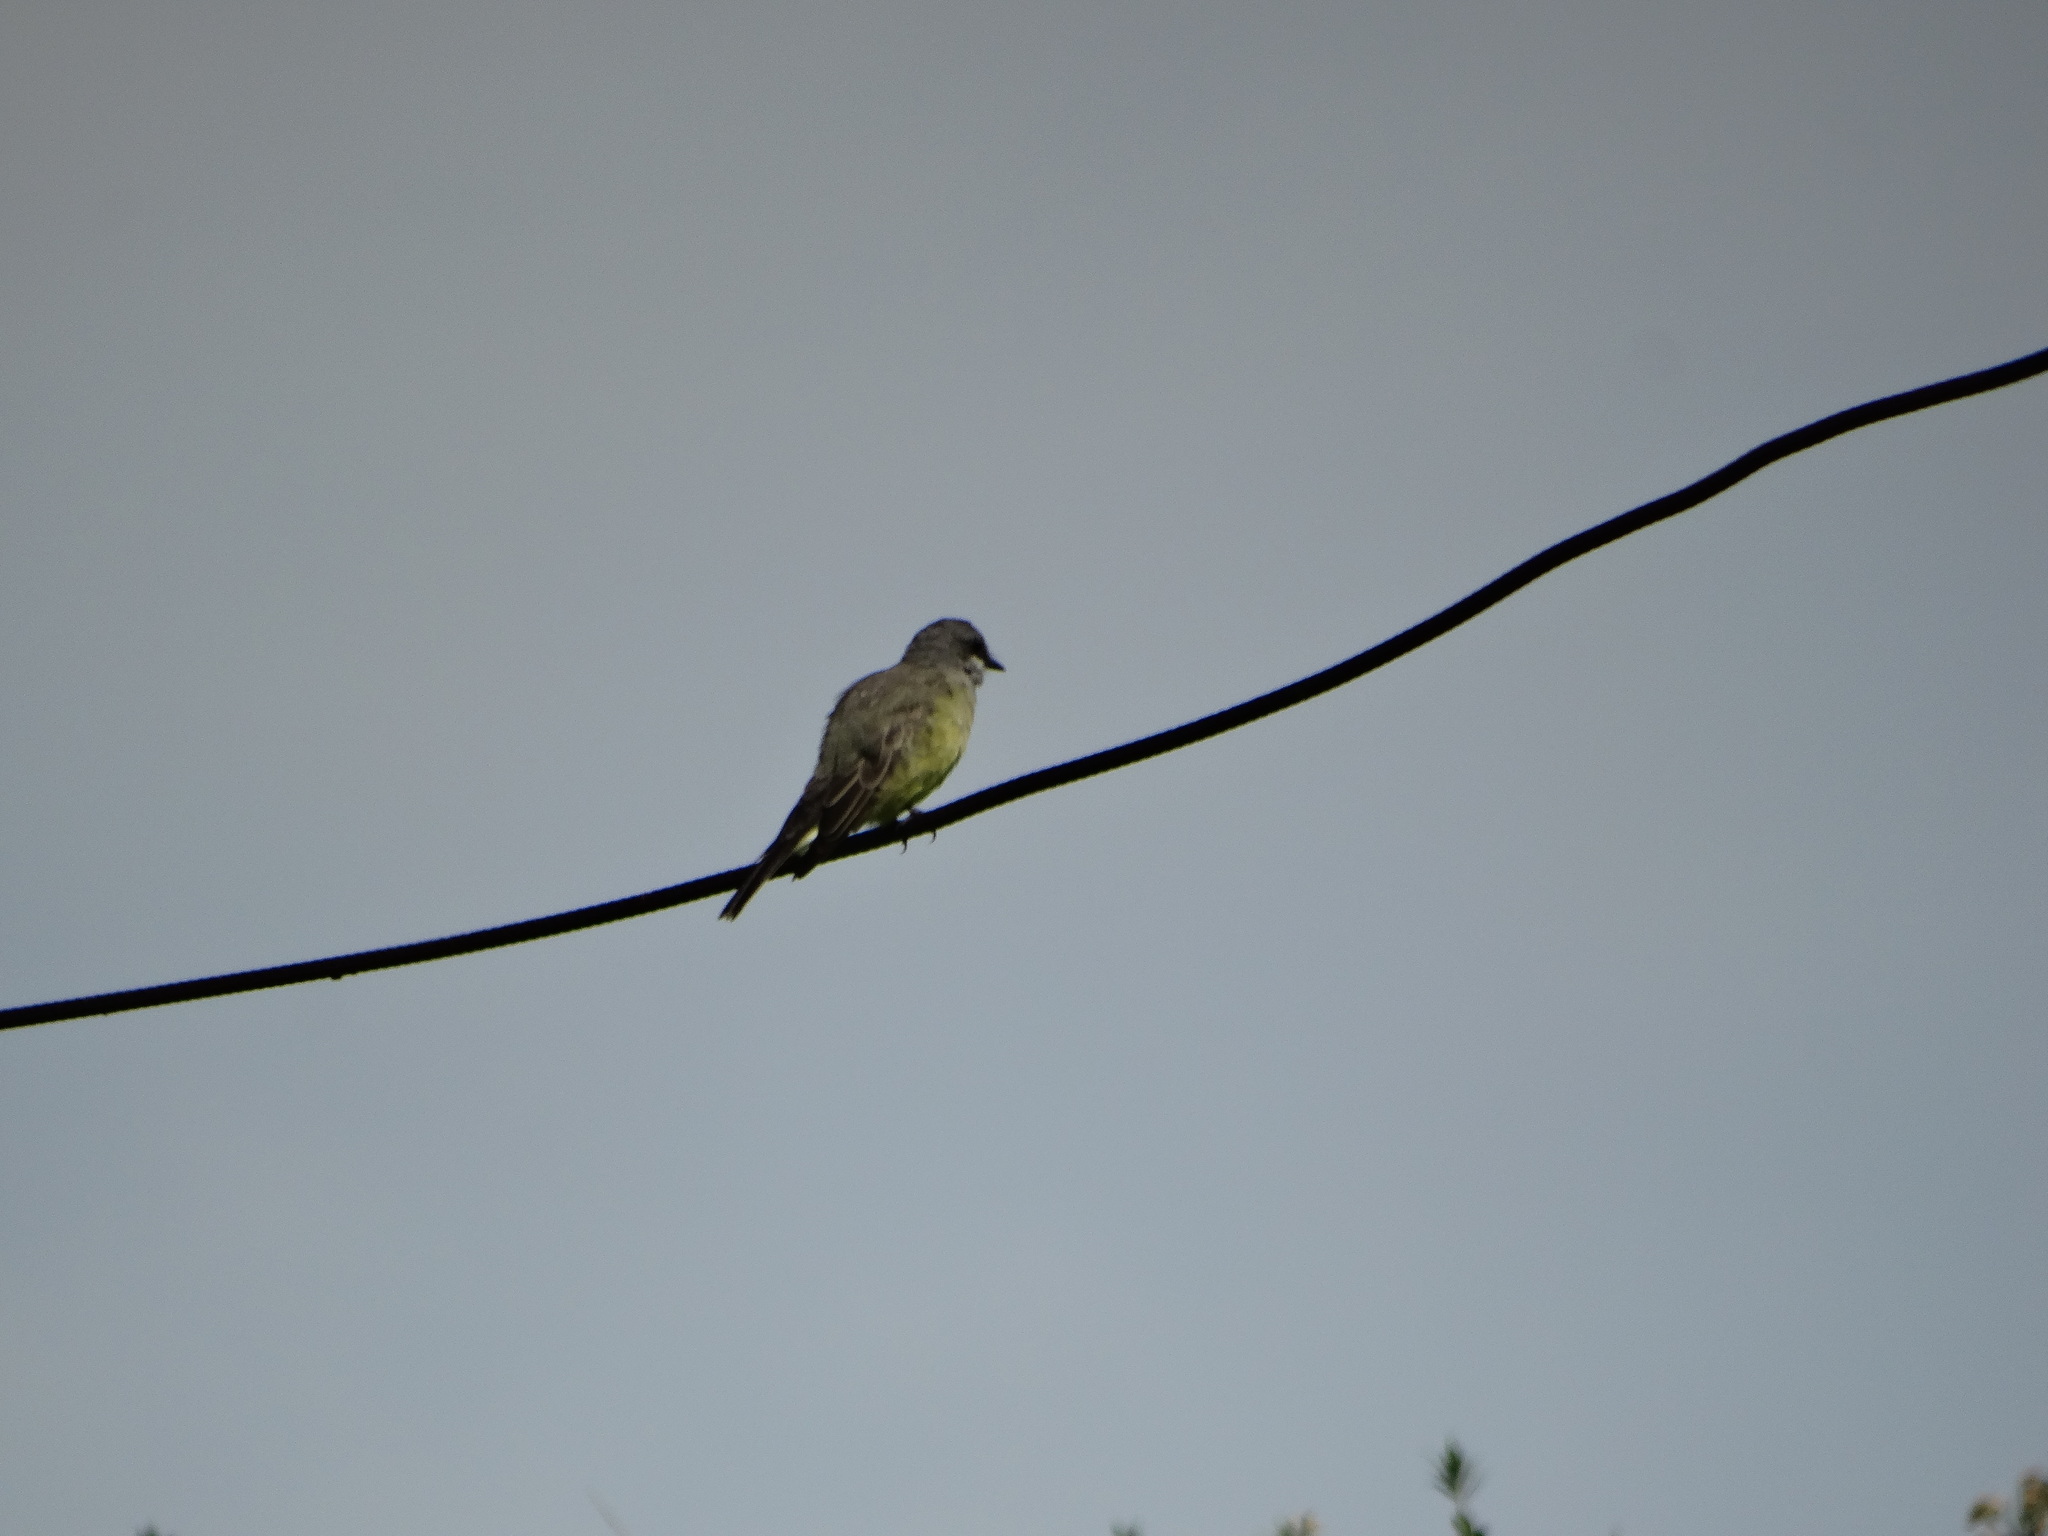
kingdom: Animalia
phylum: Chordata
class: Aves
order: Passeriformes
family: Tyrannidae
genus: Tyrannus
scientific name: Tyrannus vociferans
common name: Cassin's kingbird
